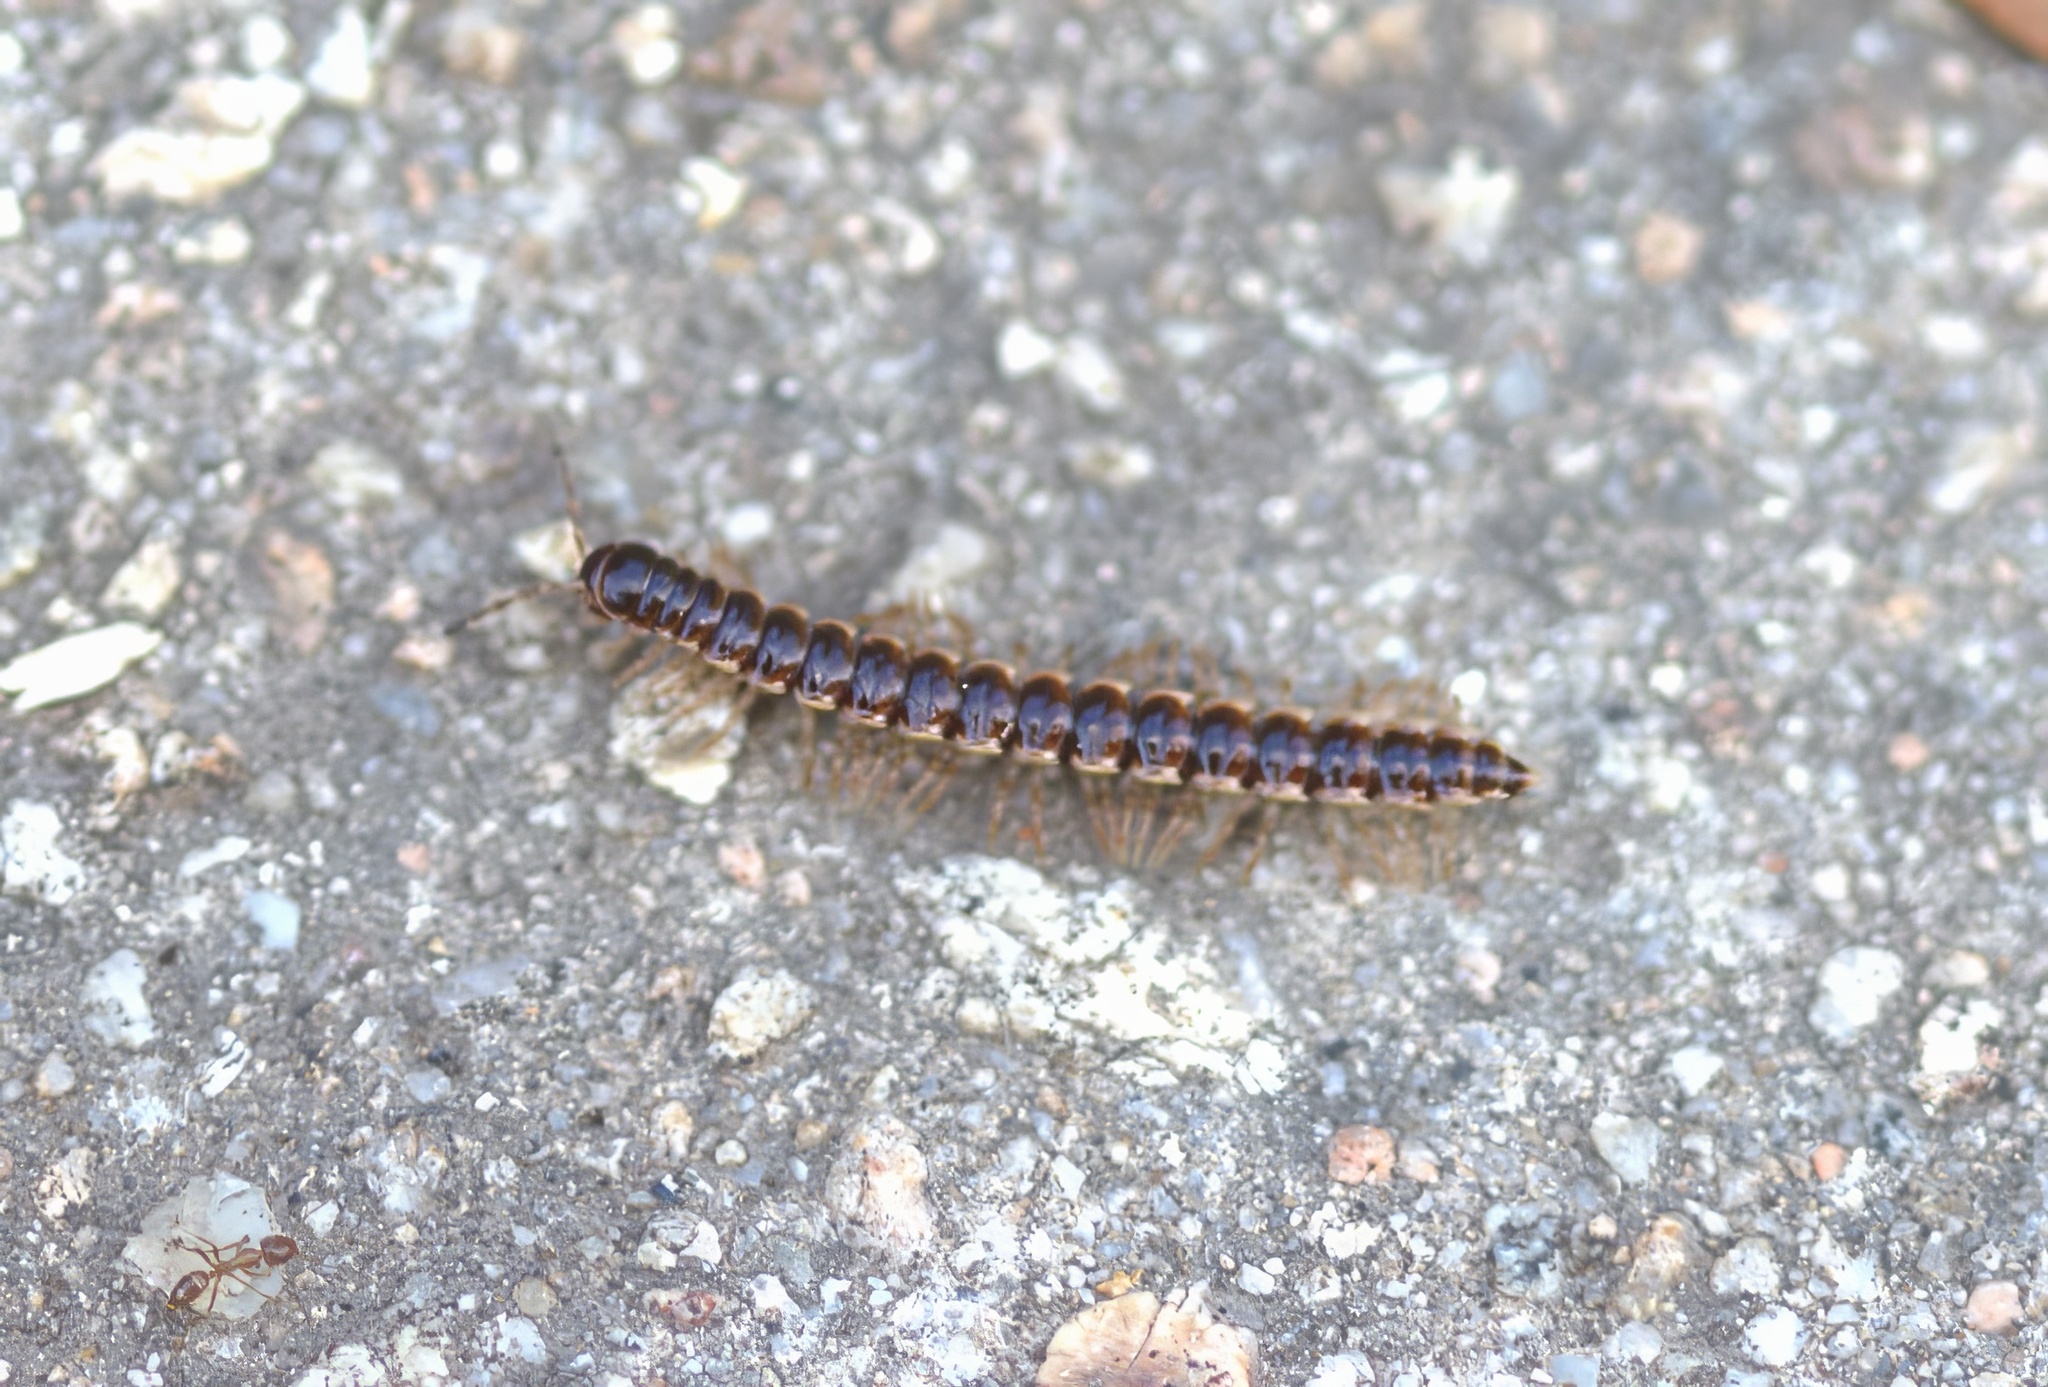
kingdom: Animalia
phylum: Arthropoda
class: Diplopoda
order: Polydesmida
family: Paradoxosomatidae
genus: Oxidus
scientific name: Oxidus gracilis
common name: Greenhouse millipede
